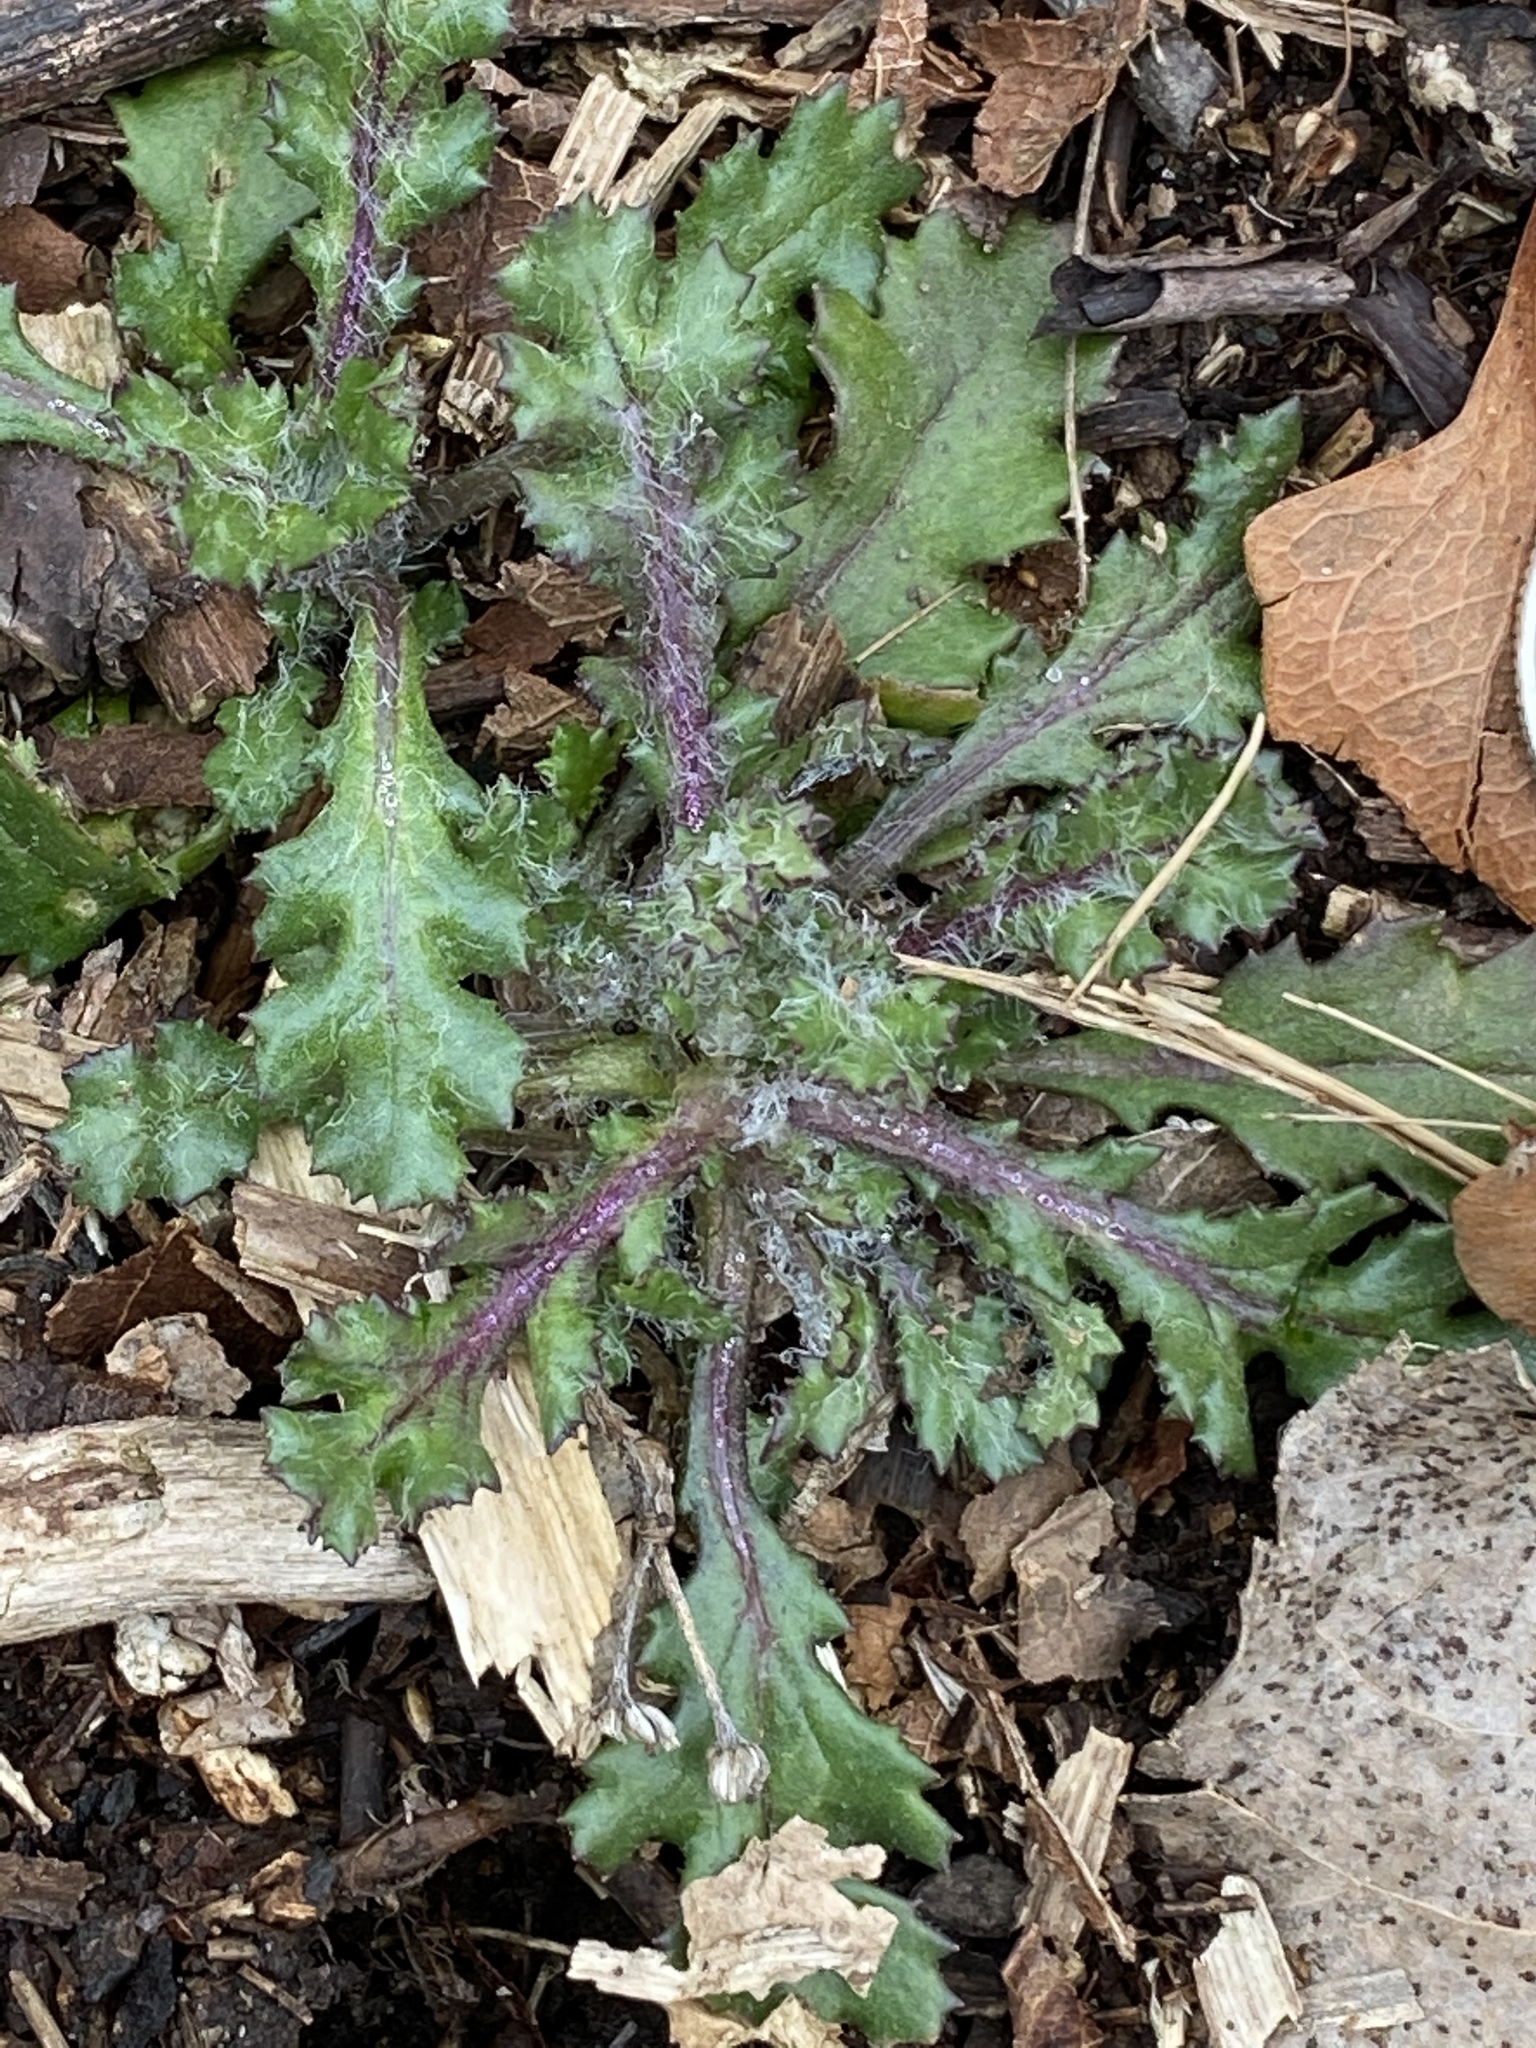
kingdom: Plantae
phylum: Tracheophyta
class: Magnoliopsida
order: Asterales
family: Asteraceae
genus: Senecio
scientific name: Senecio vulgaris
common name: Old-man-in-the-spring
